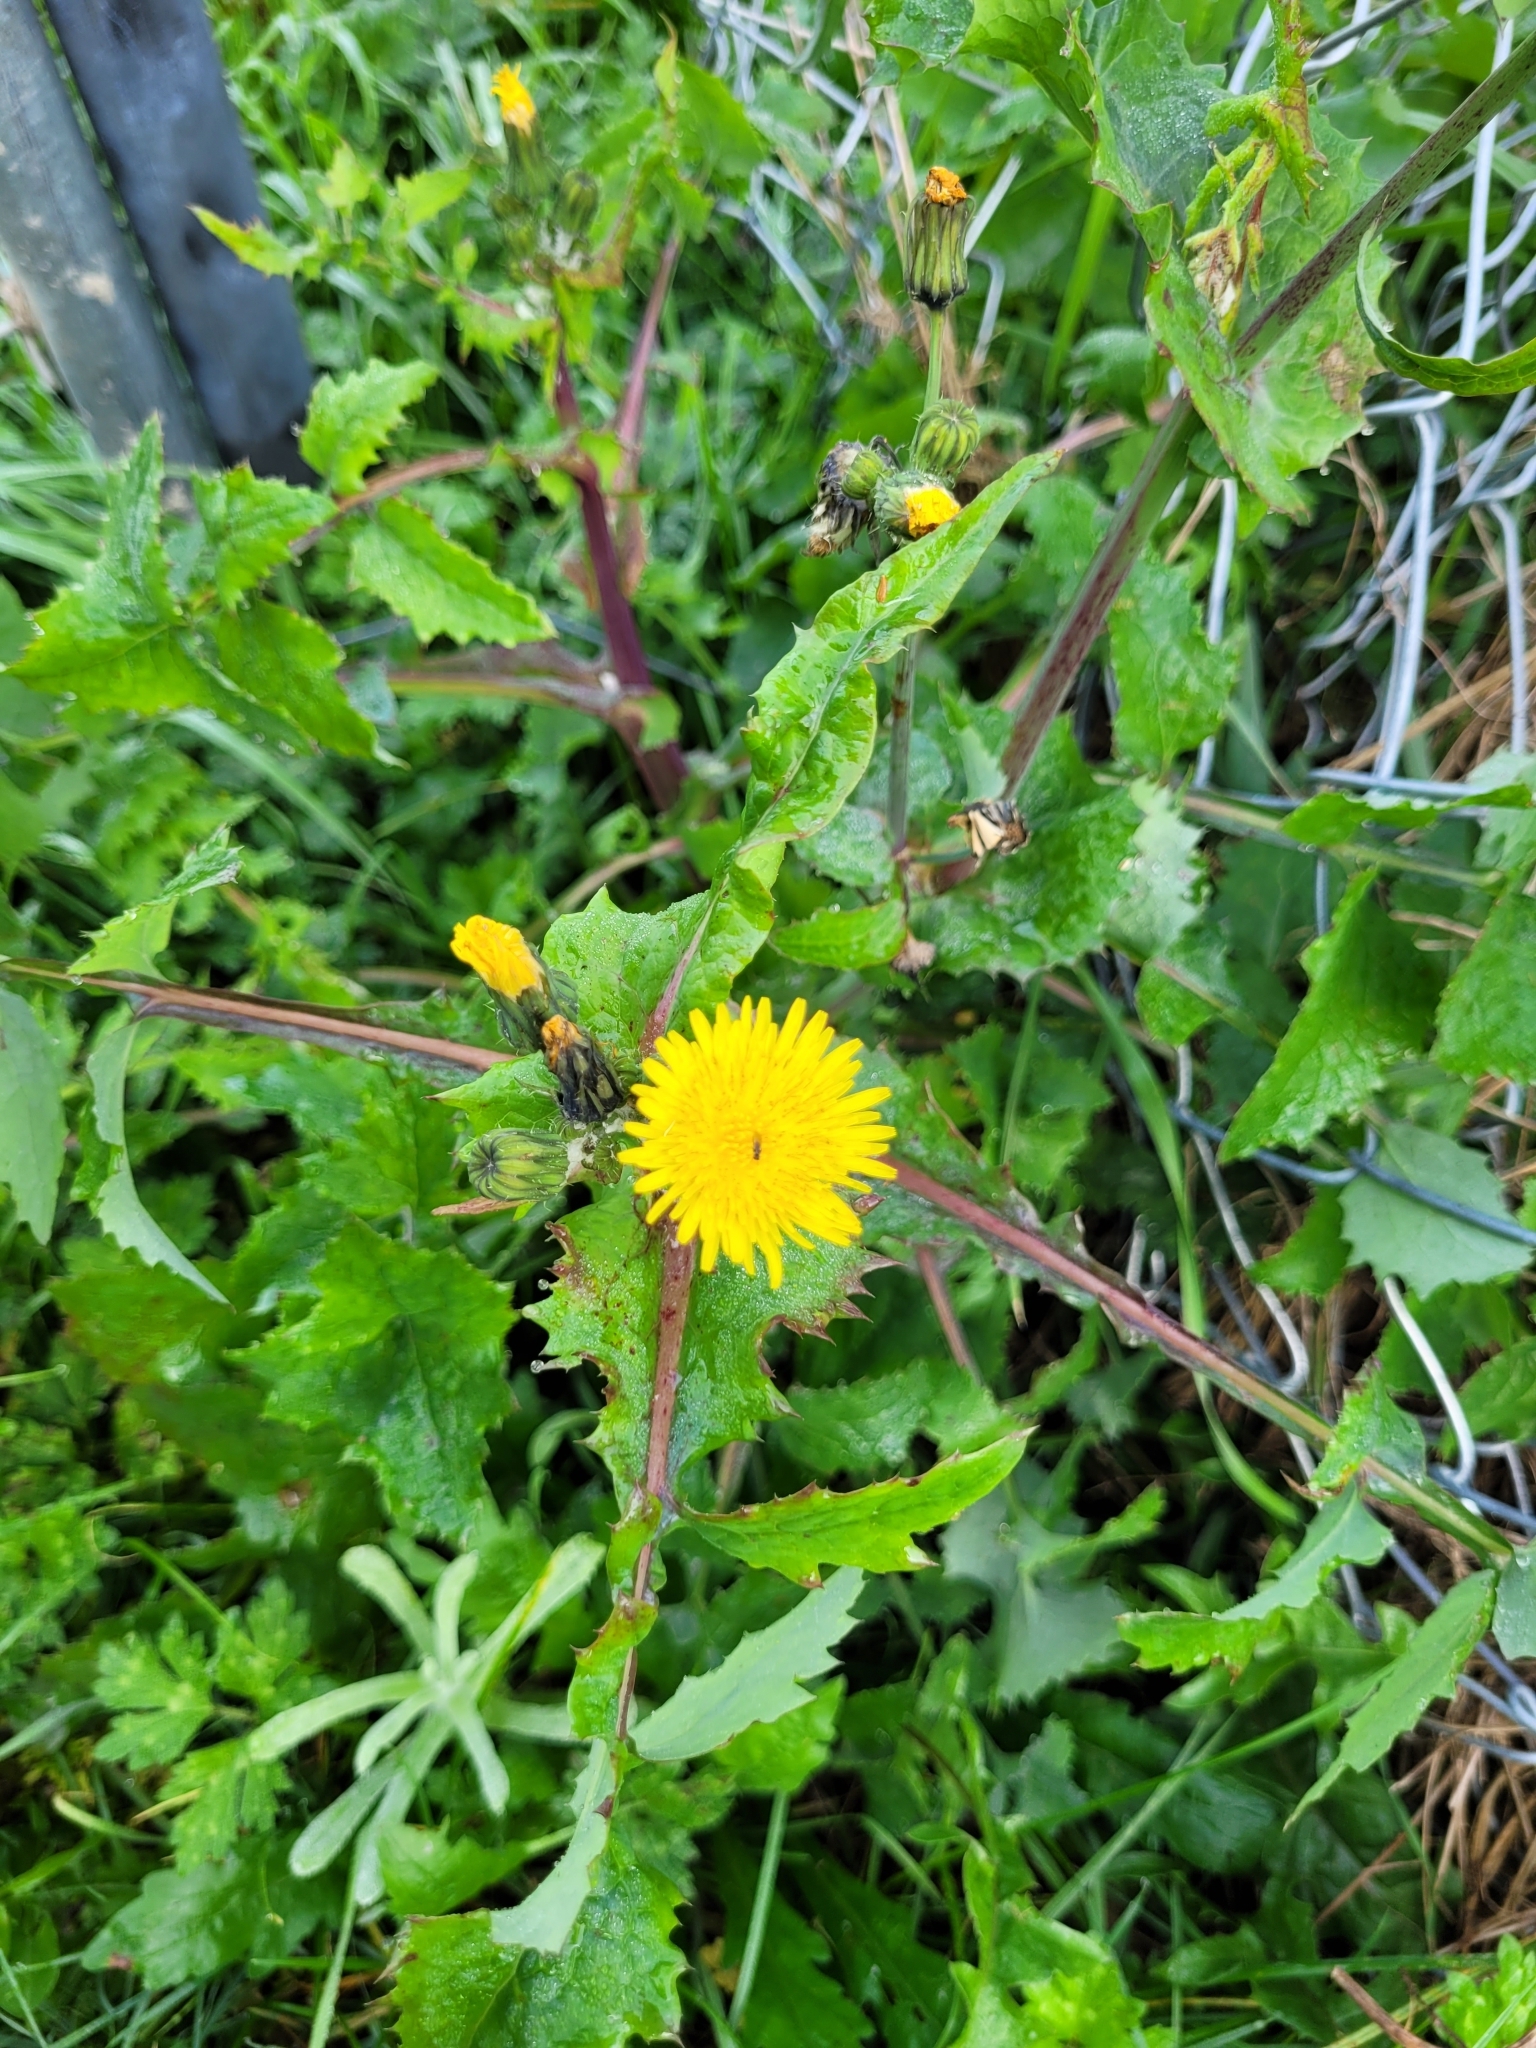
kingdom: Plantae
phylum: Tracheophyta
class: Magnoliopsida
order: Asterales
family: Asteraceae
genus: Sonchus
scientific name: Sonchus oleraceus
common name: Common sowthistle
